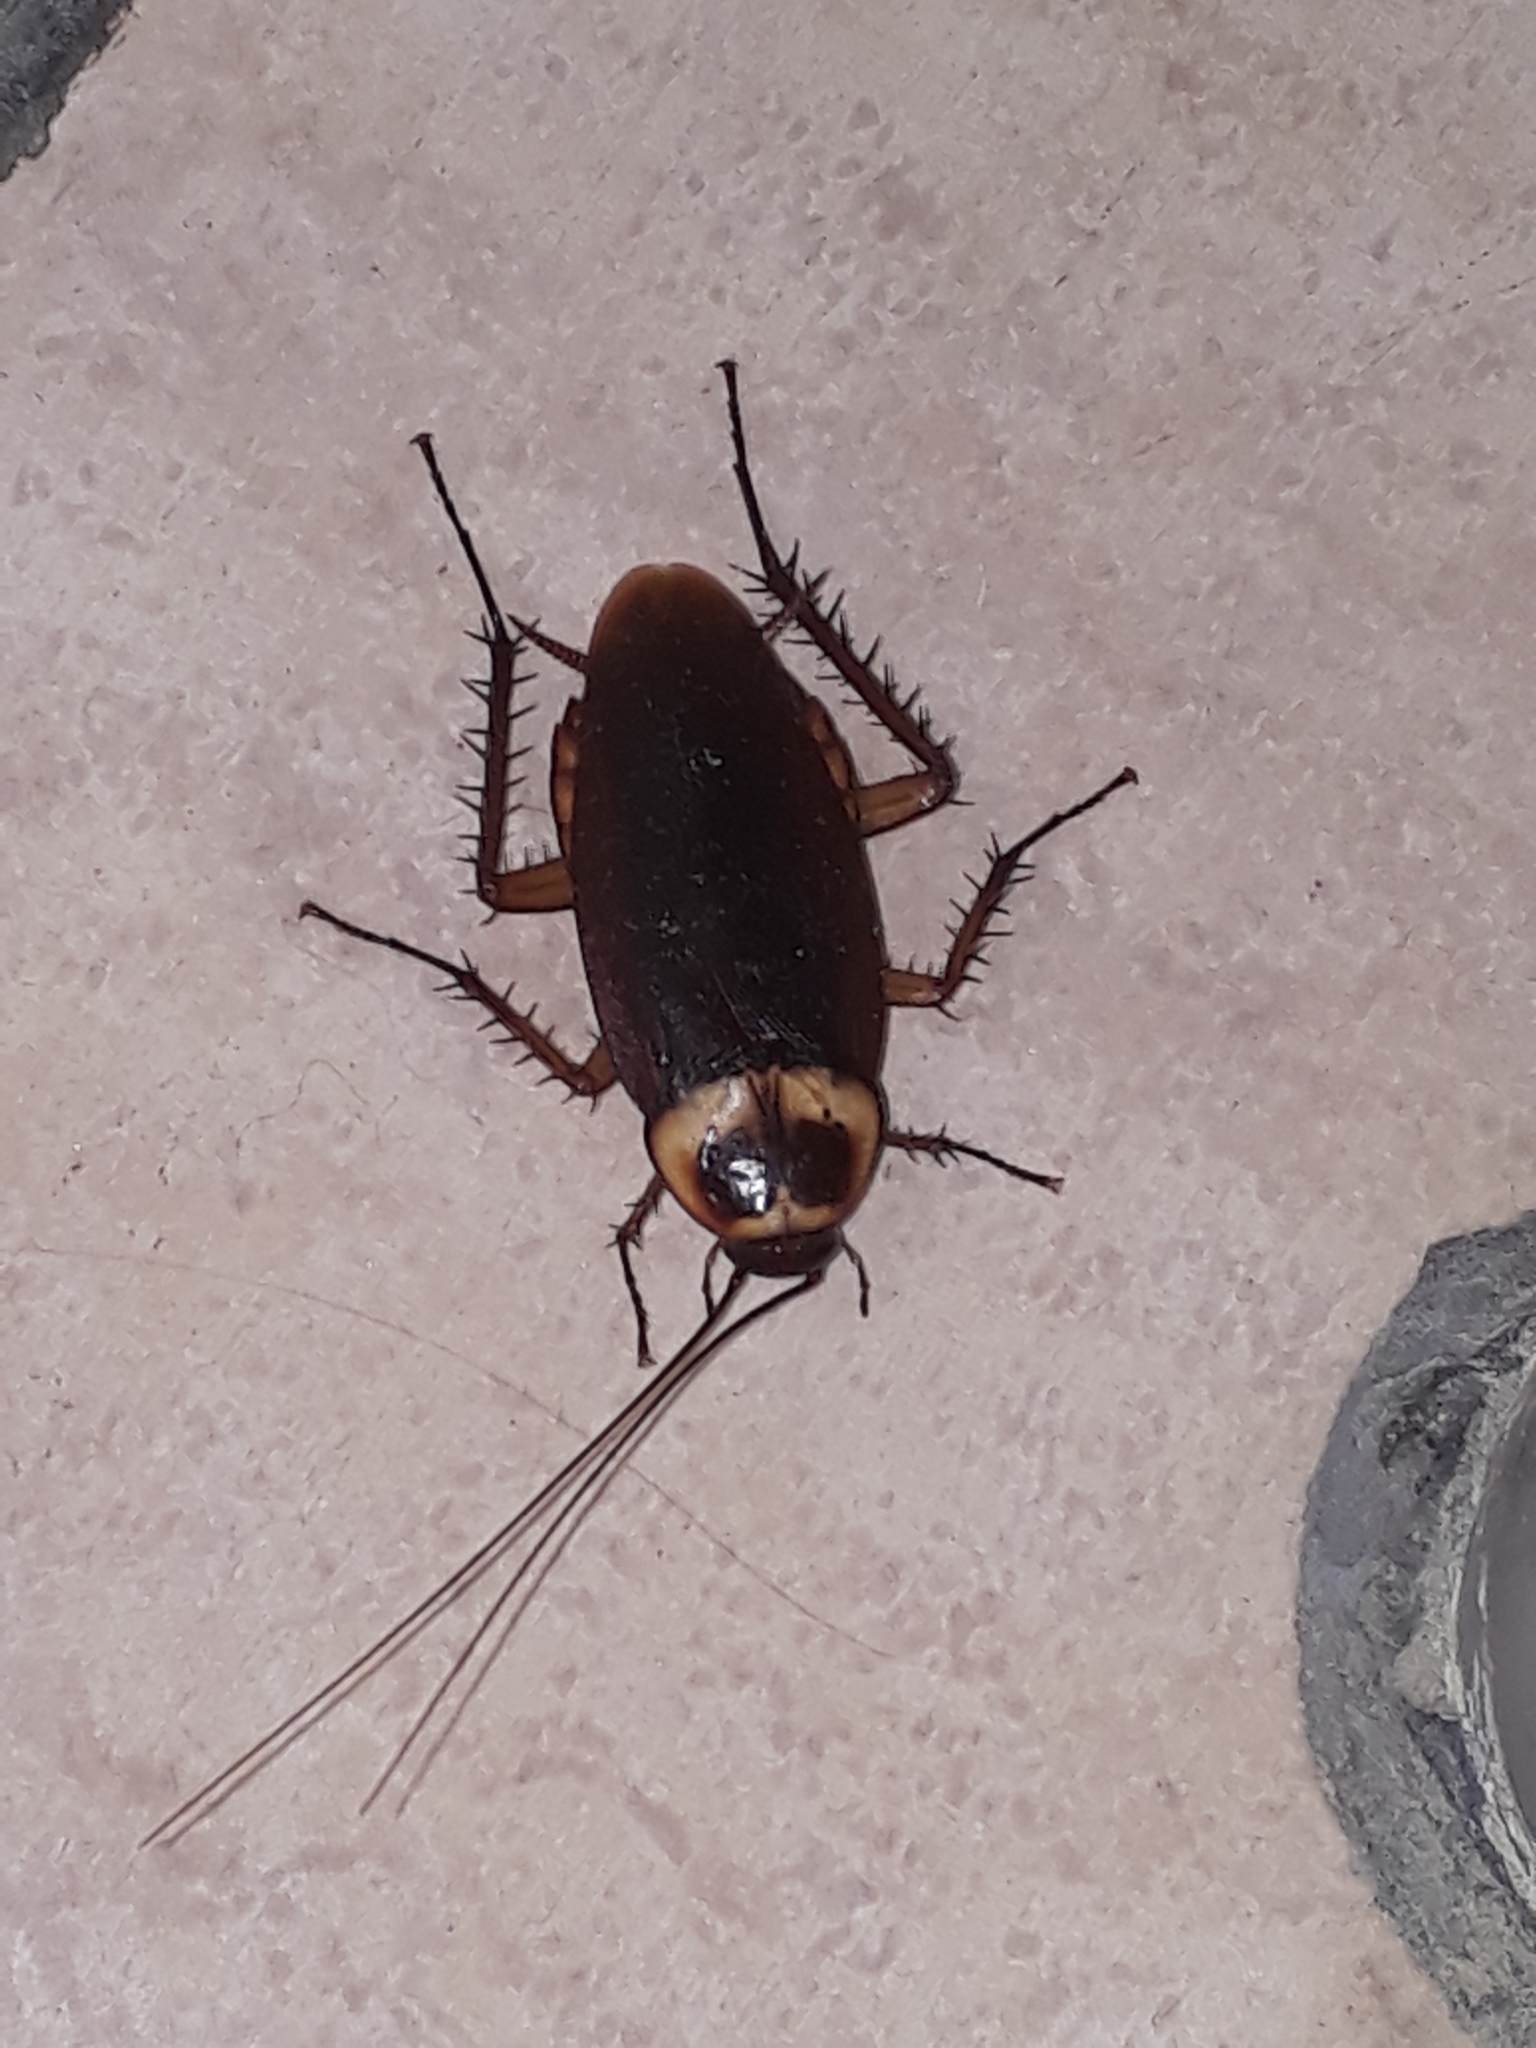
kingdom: Animalia
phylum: Arthropoda
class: Insecta
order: Blattodea
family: Blattidae
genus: Periplaneta
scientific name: Periplaneta americana
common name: American cockroach
